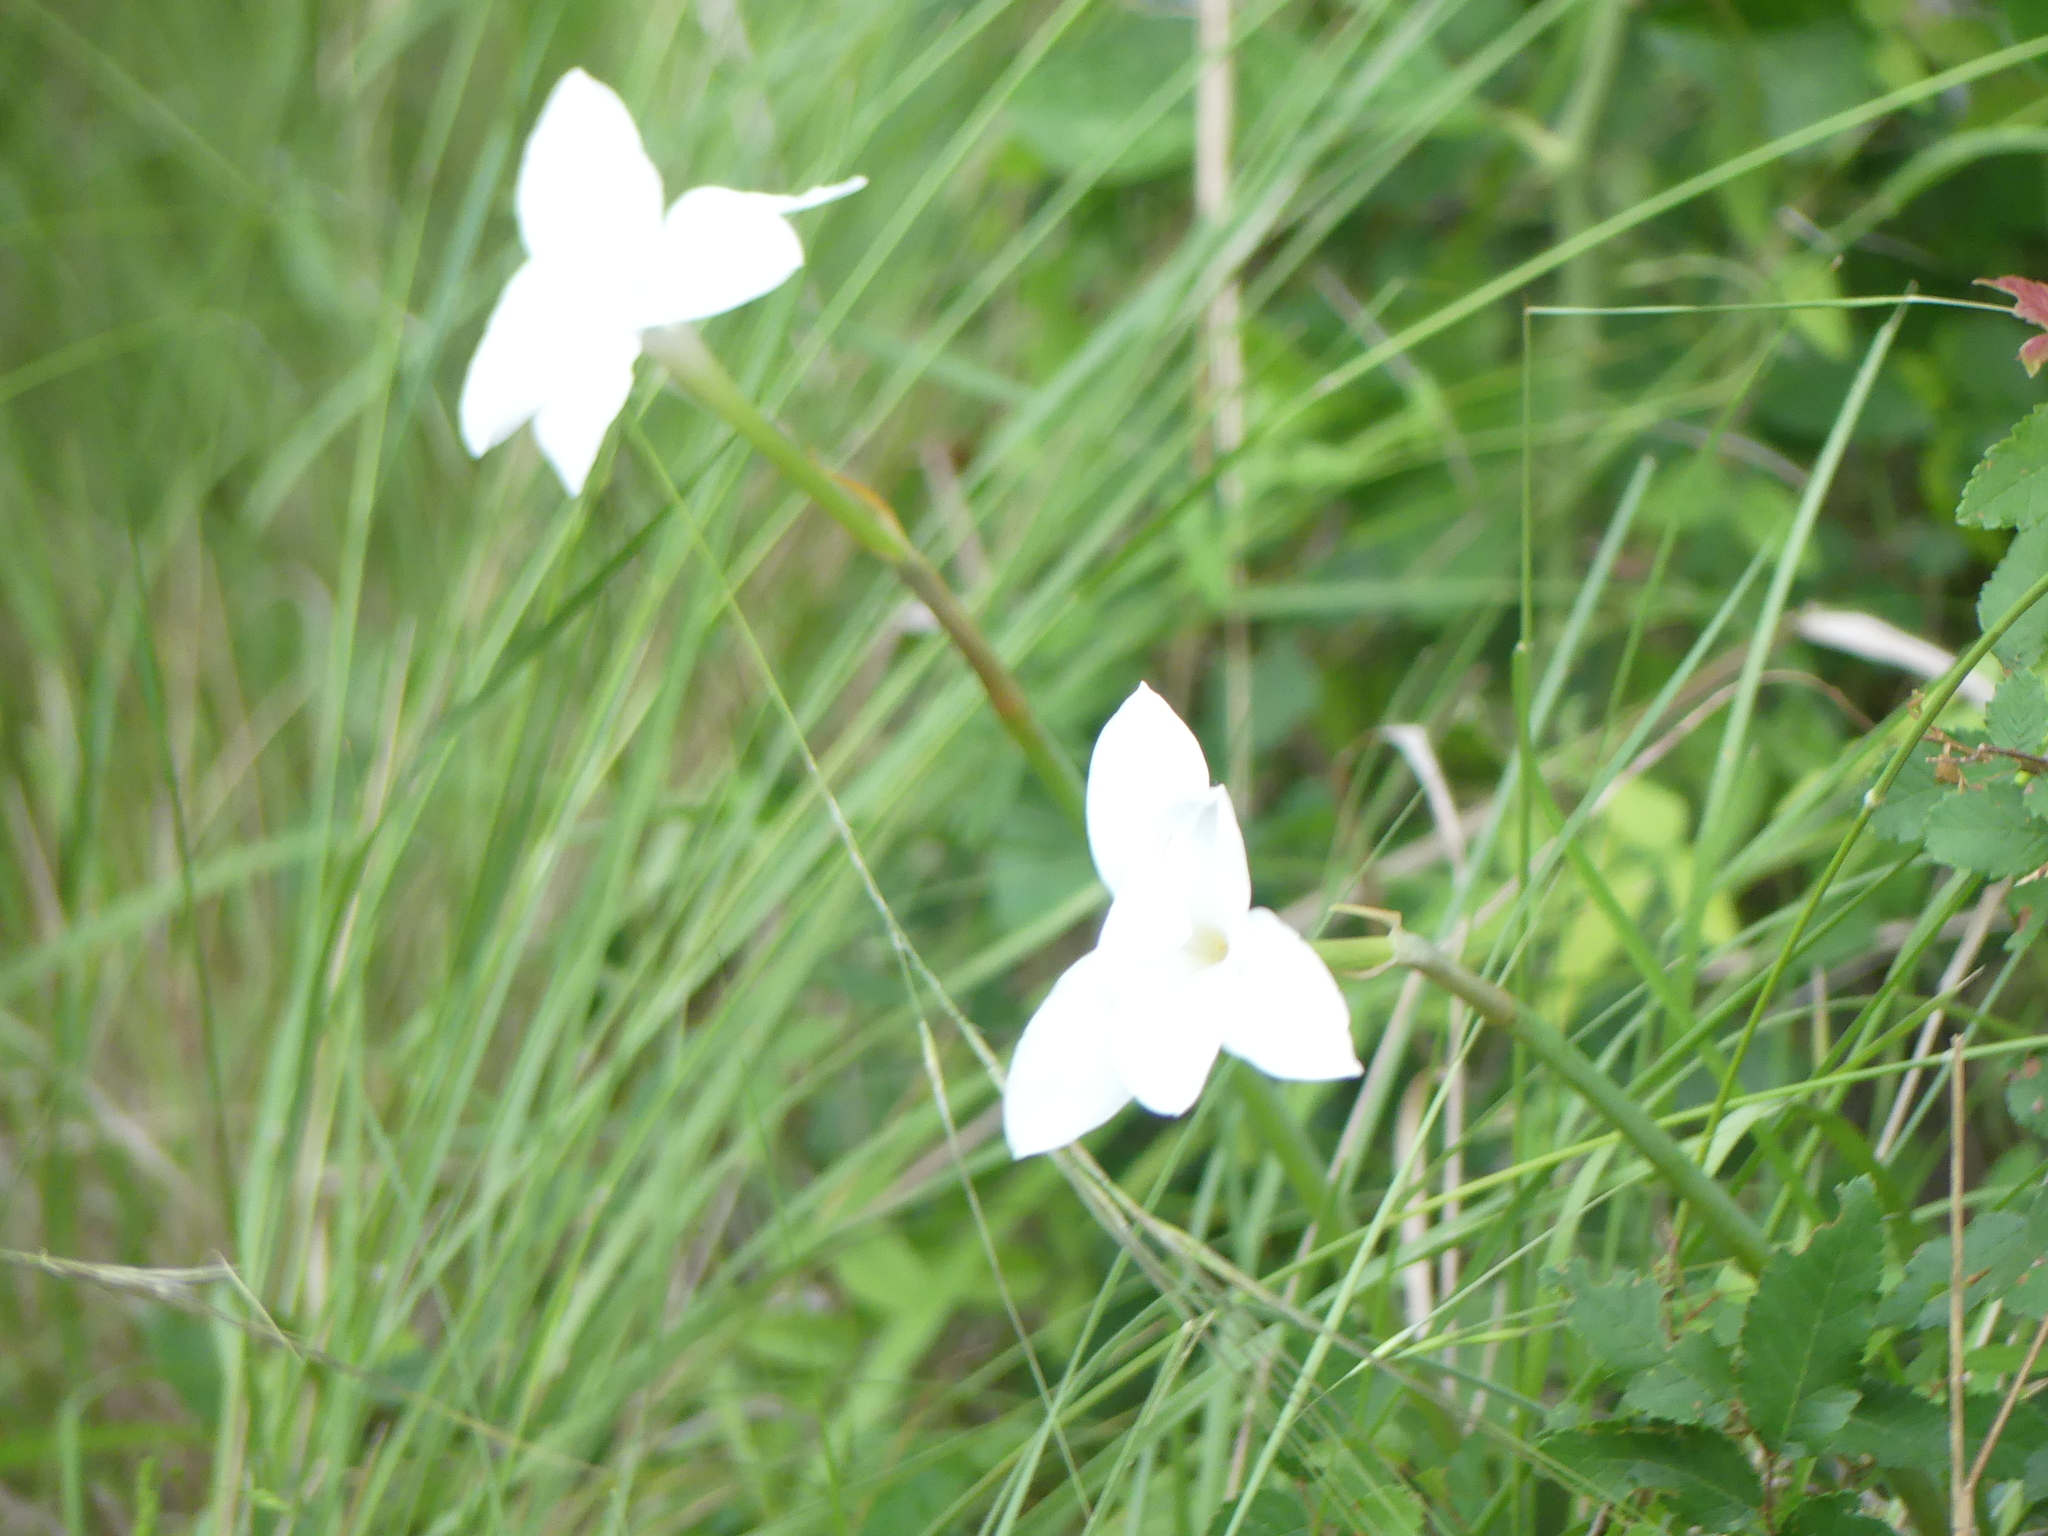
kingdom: Plantae
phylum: Tracheophyta
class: Liliopsida
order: Asparagales
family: Amaryllidaceae
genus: Zephyranthes
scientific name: Zephyranthes drummondii
